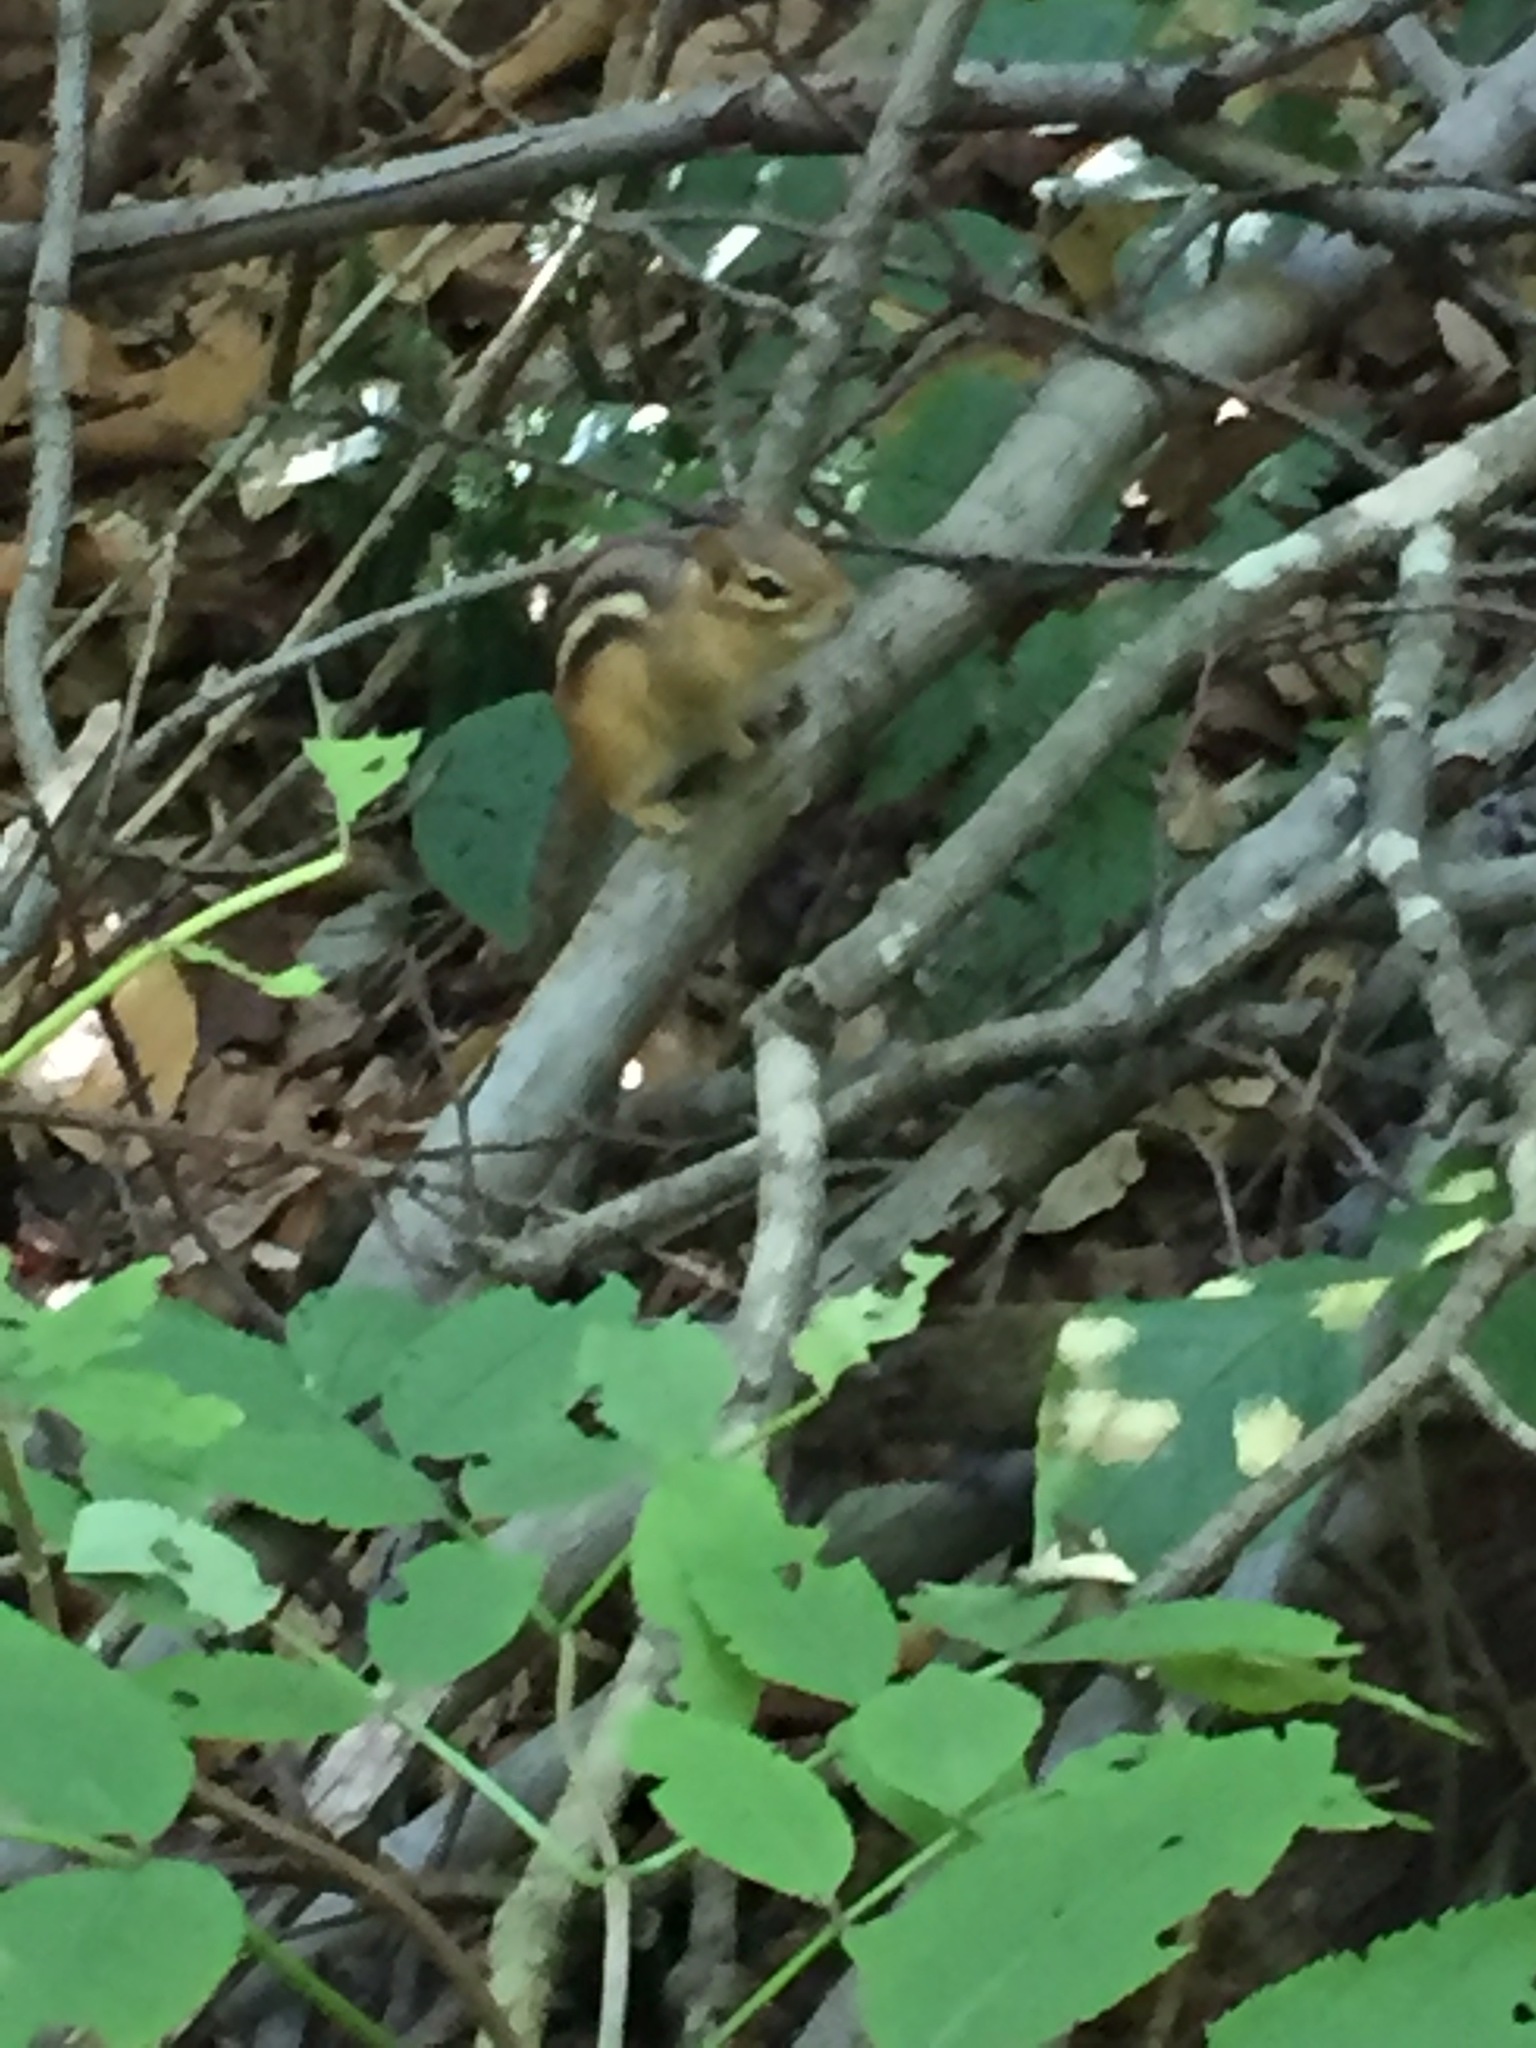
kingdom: Animalia
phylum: Chordata
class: Mammalia
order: Rodentia
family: Sciuridae
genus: Tamias
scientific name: Tamias striatus
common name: Eastern chipmunk
